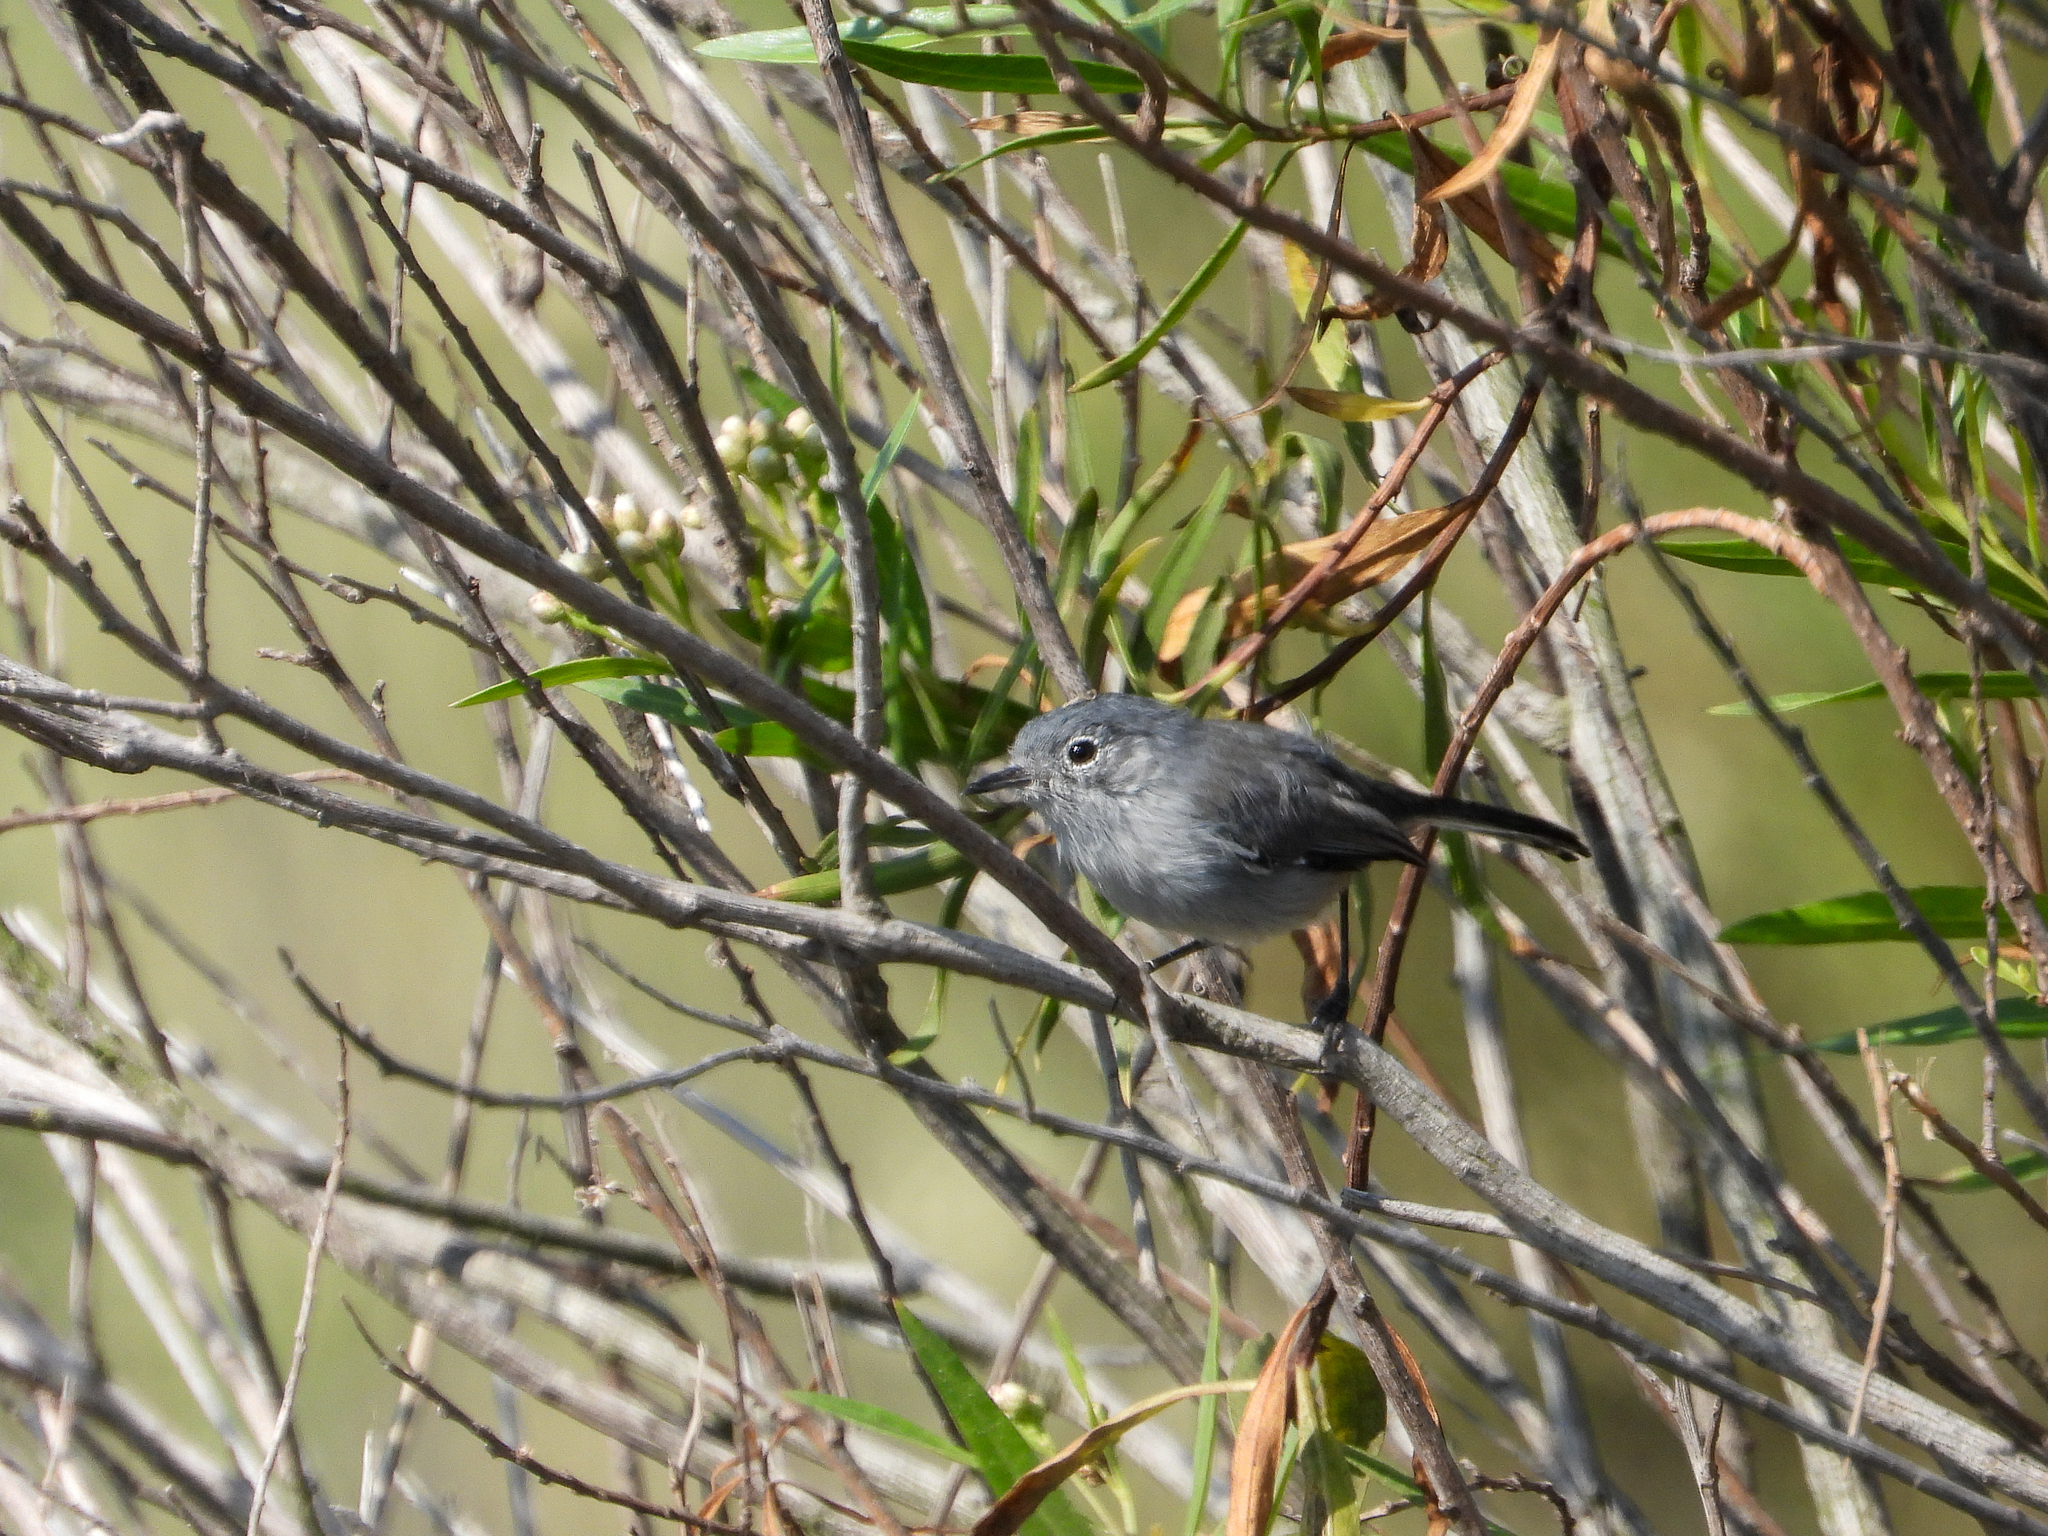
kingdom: Animalia
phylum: Chordata
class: Aves
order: Passeriformes
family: Polioptilidae
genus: Polioptila
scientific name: Polioptila californica
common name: California gnatcatcher
